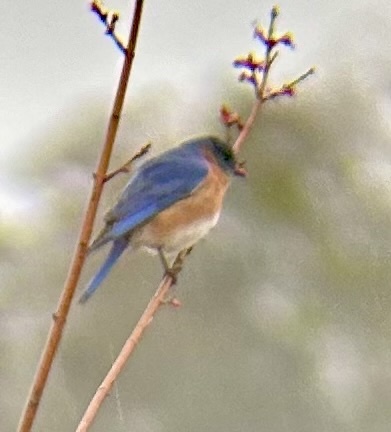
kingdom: Animalia
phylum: Chordata
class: Aves
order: Passeriformes
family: Turdidae
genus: Sialia
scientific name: Sialia sialis
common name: Eastern bluebird
